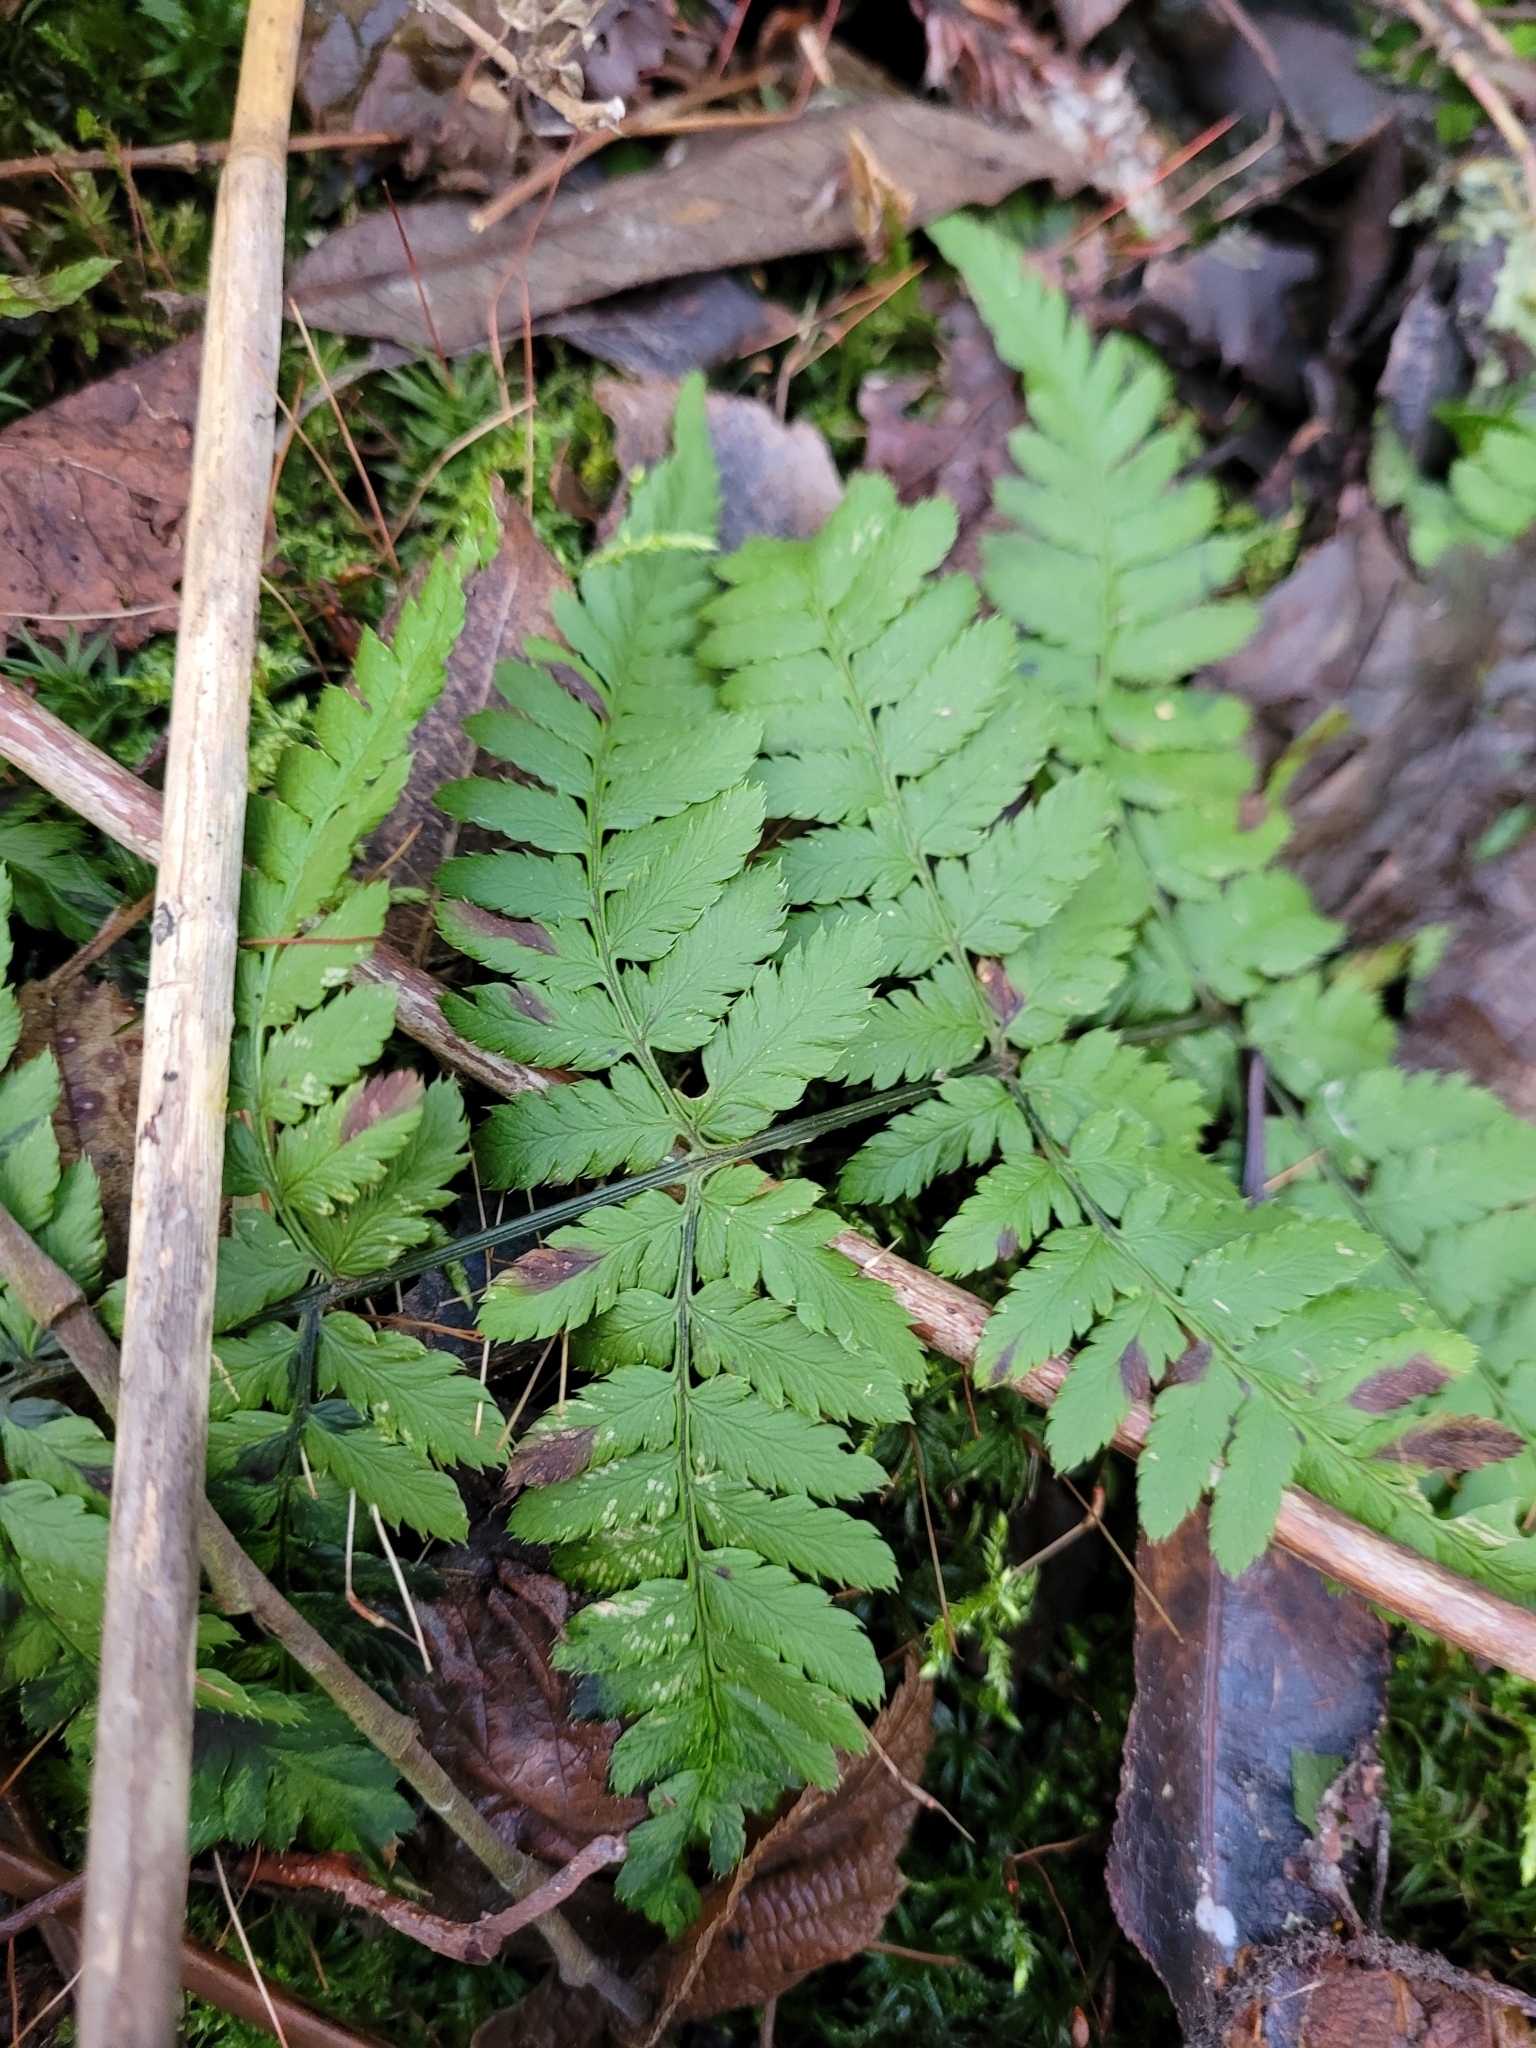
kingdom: Plantae
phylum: Tracheophyta
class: Polypodiopsida
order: Polypodiales
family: Dryopteridaceae
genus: Dryopteris
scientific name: Dryopteris carthusiana
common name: Narrow buckler-fern
